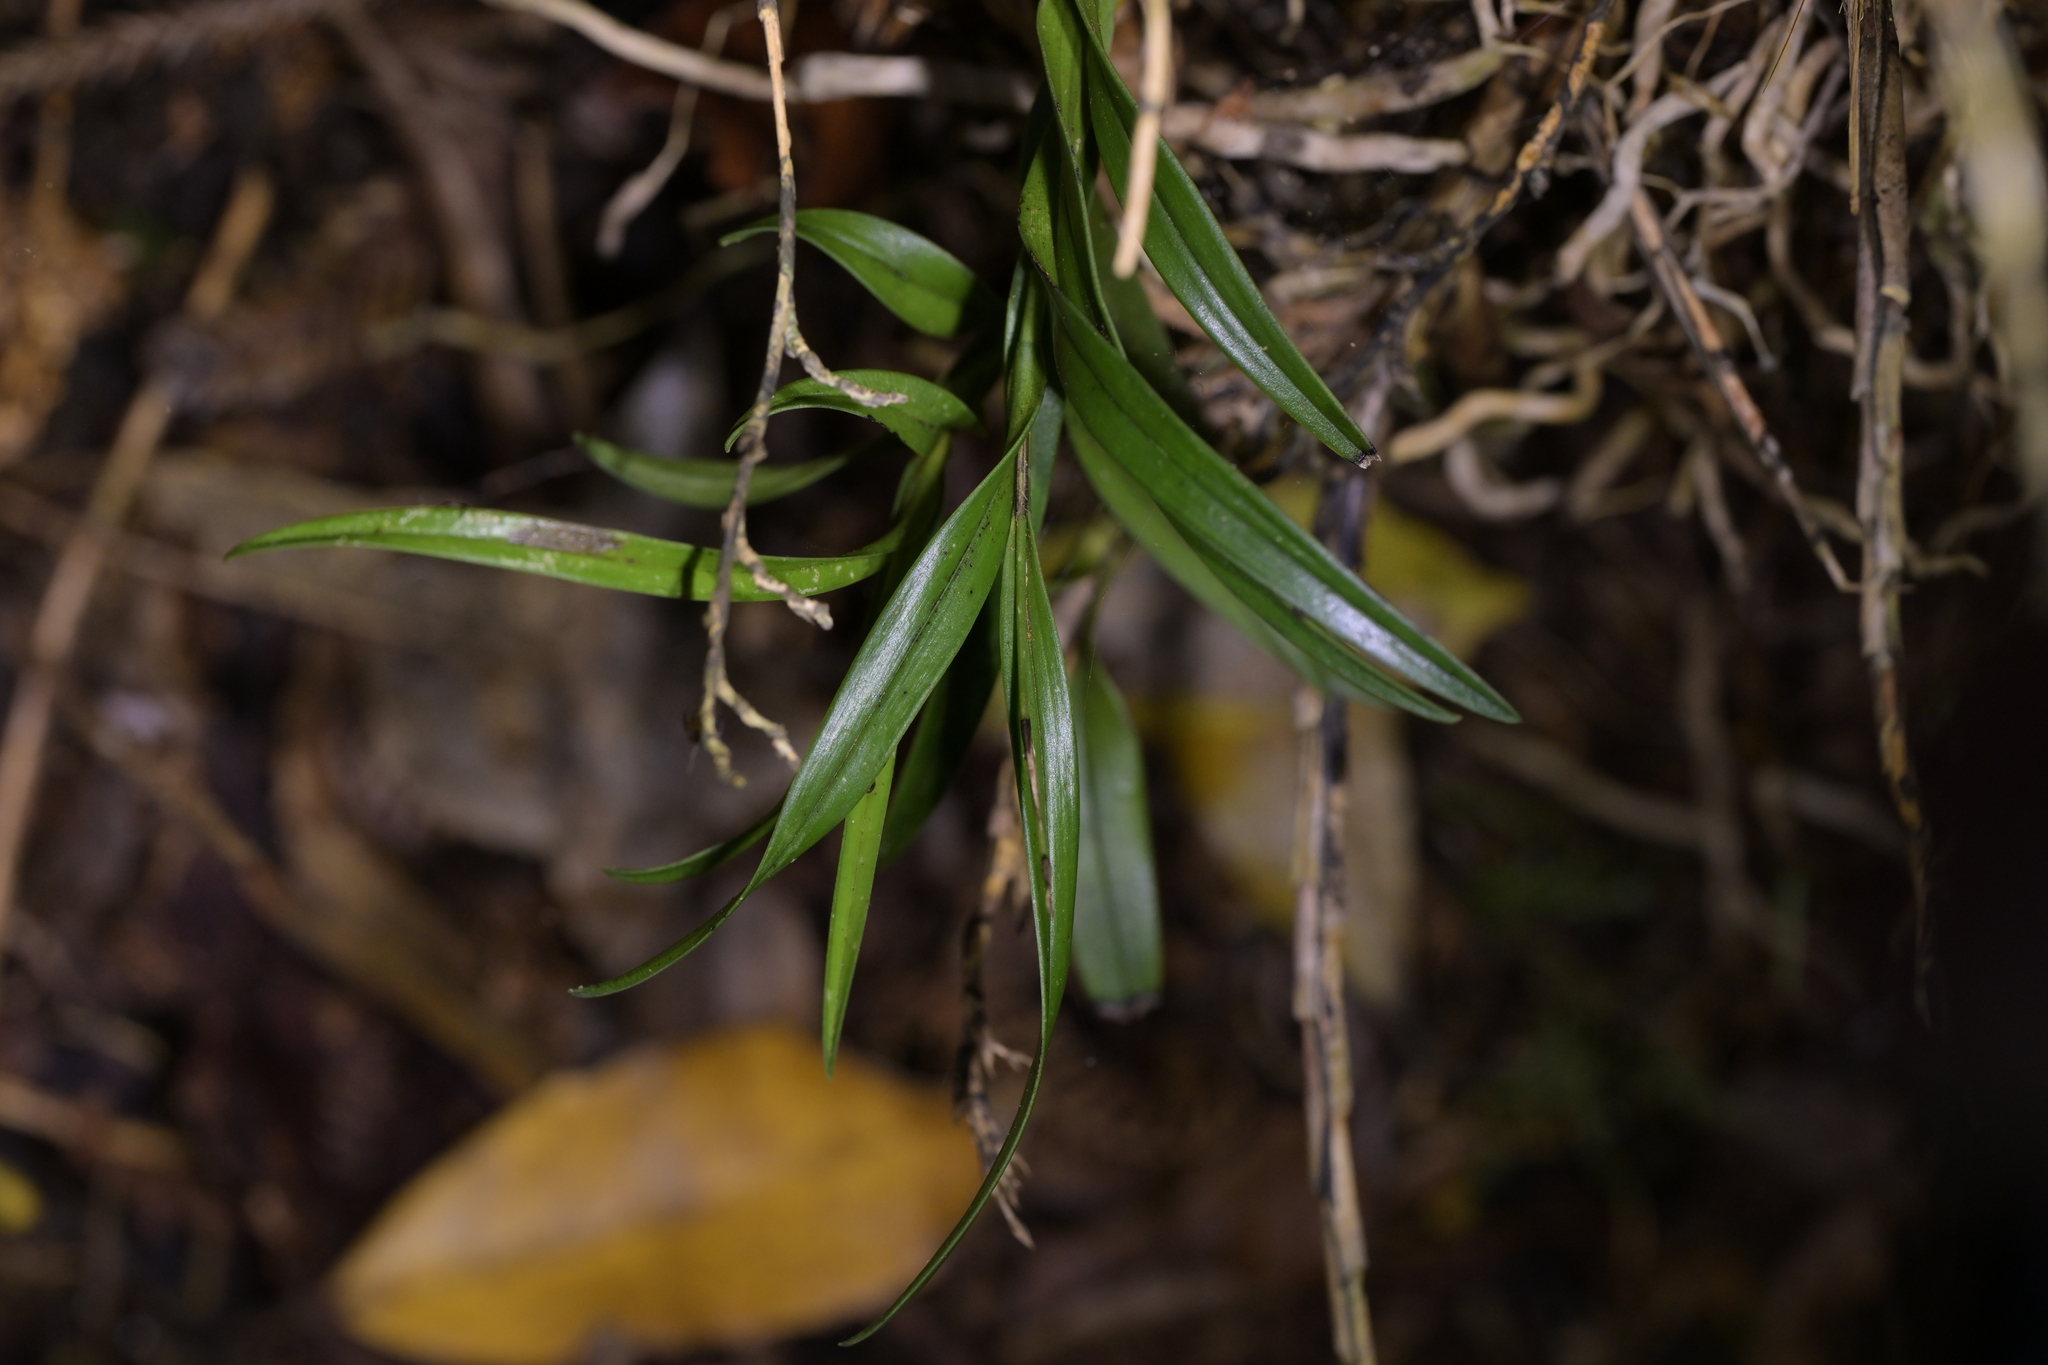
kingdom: Plantae
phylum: Tracheophyta
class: Liliopsida
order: Asparagales
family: Orchidaceae
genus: Earina
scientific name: Earina autumnalis
